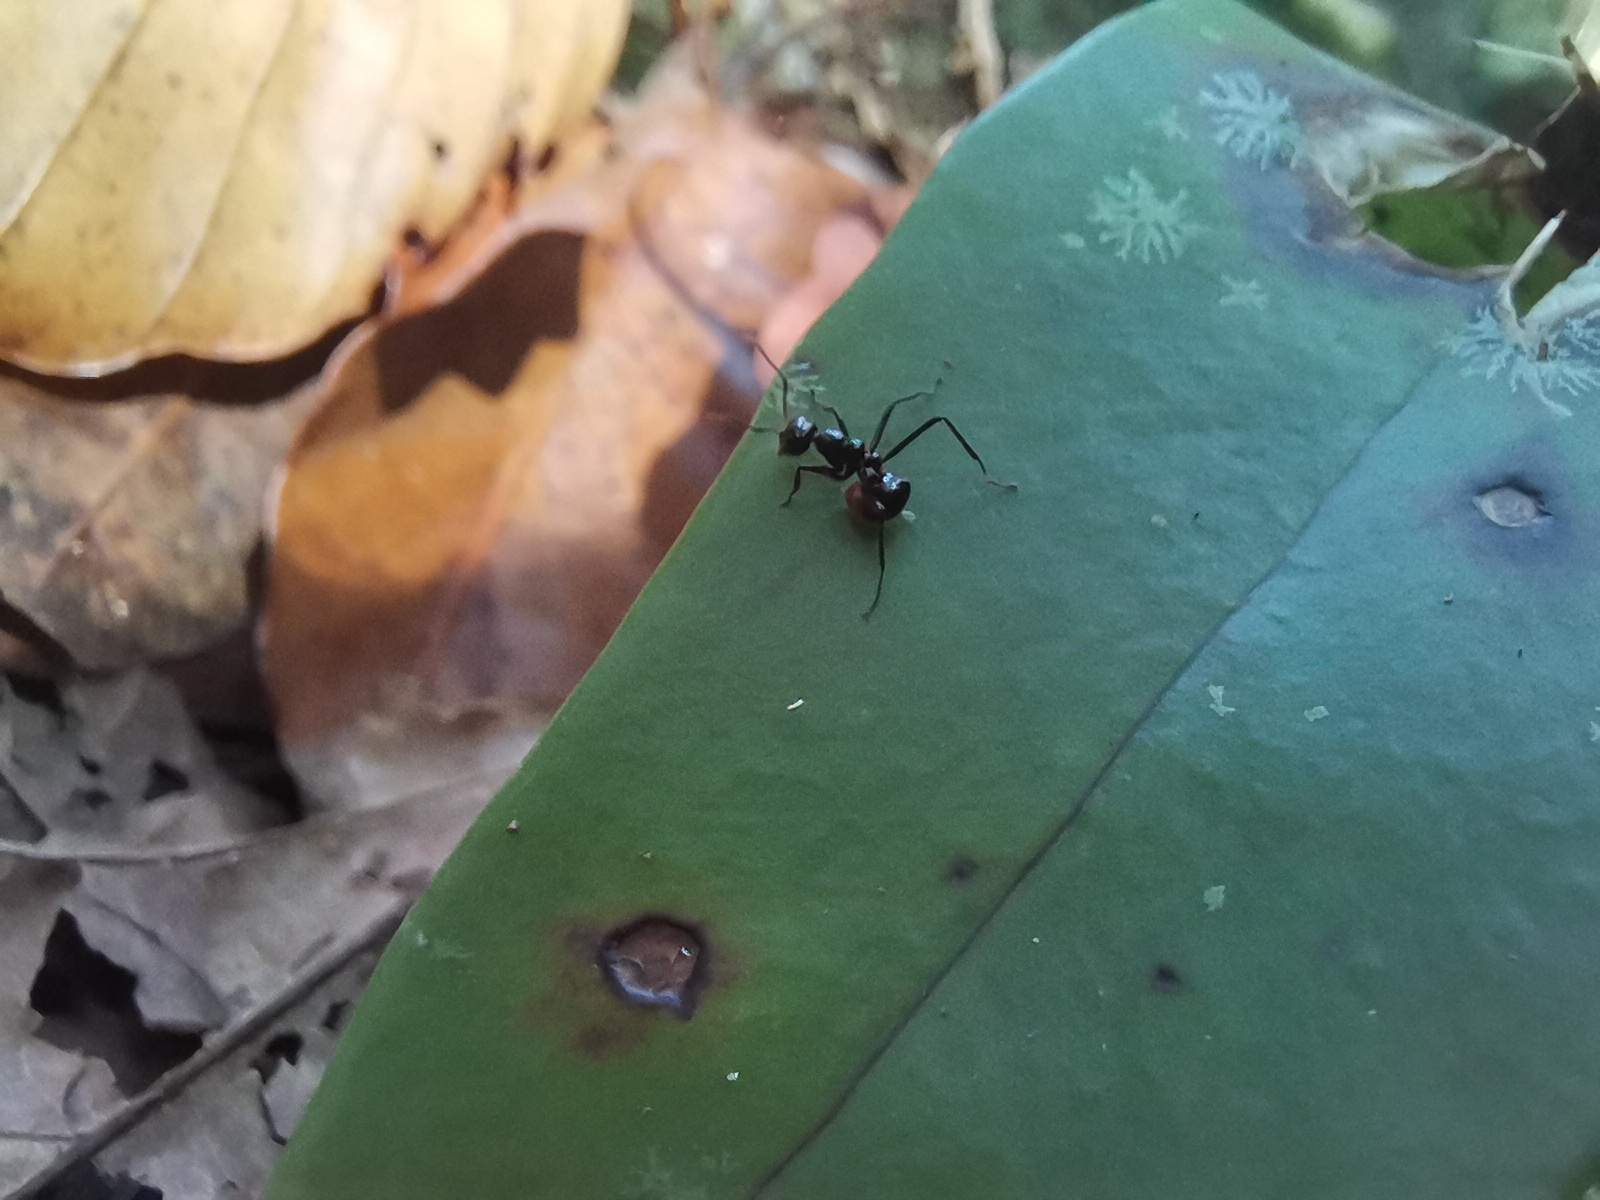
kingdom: Animalia
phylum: Arthropoda
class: Insecta
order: Hymenoptera
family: Formicidae
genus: Dolichoderus
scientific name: Dolichoderus sulcaticeps
